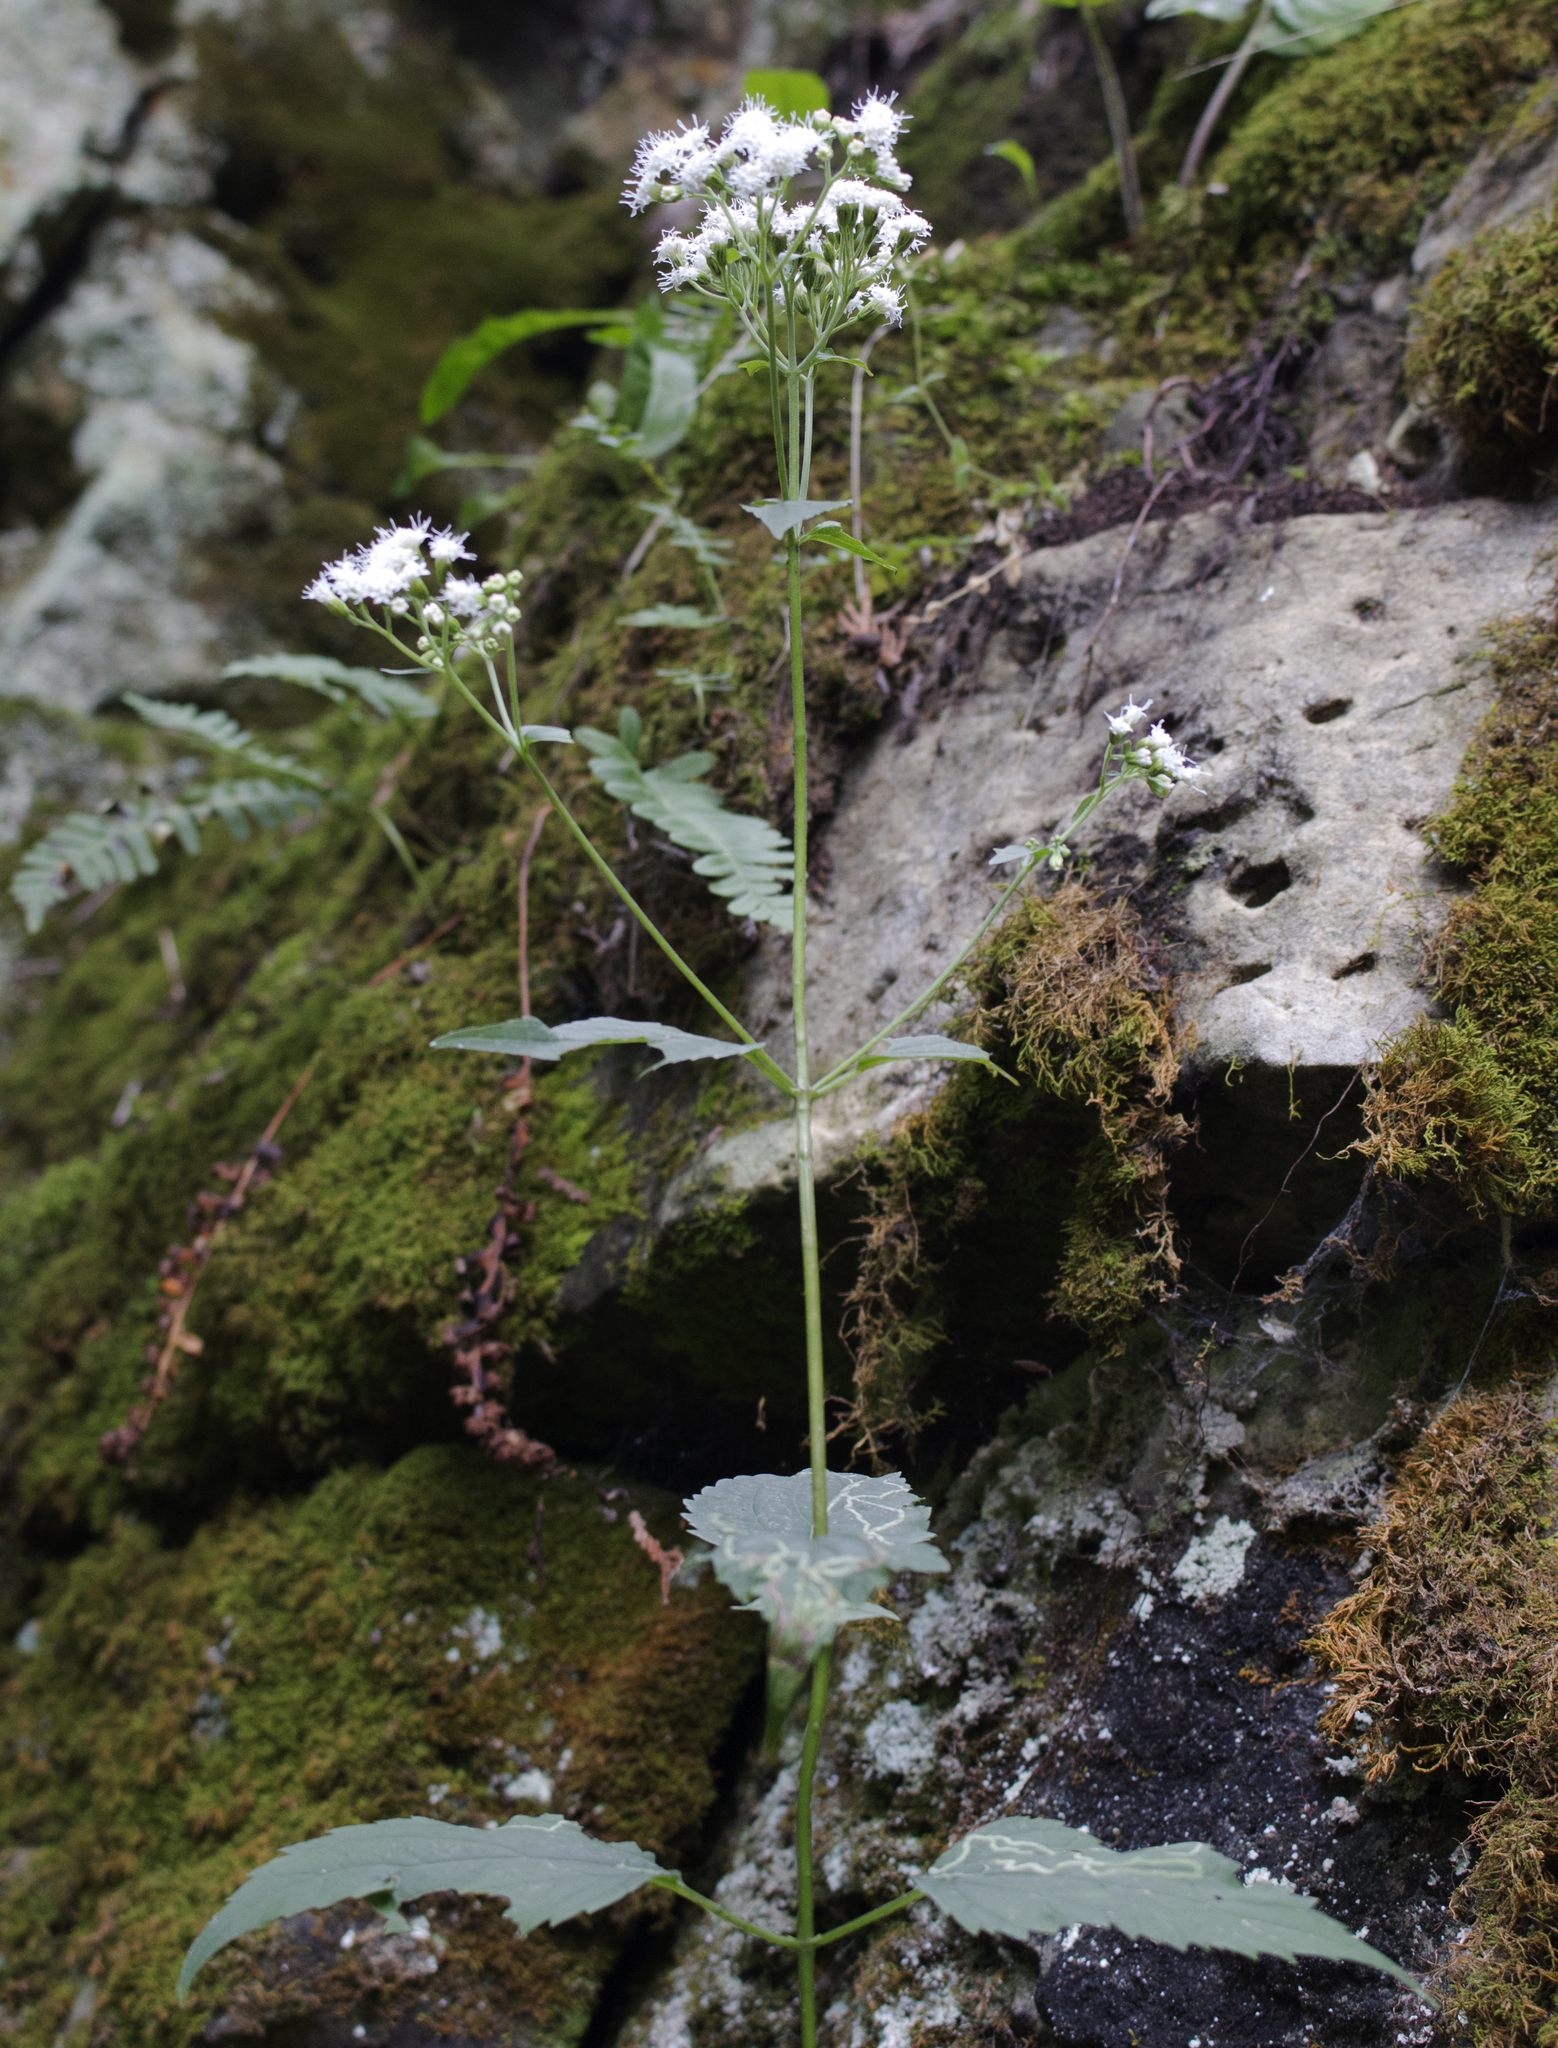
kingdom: Plantae
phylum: Tracheophyta
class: Magnoliopsida
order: Asterales
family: Asteraceae
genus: Ageratina
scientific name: Ageratina altissima
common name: White snakeroot
